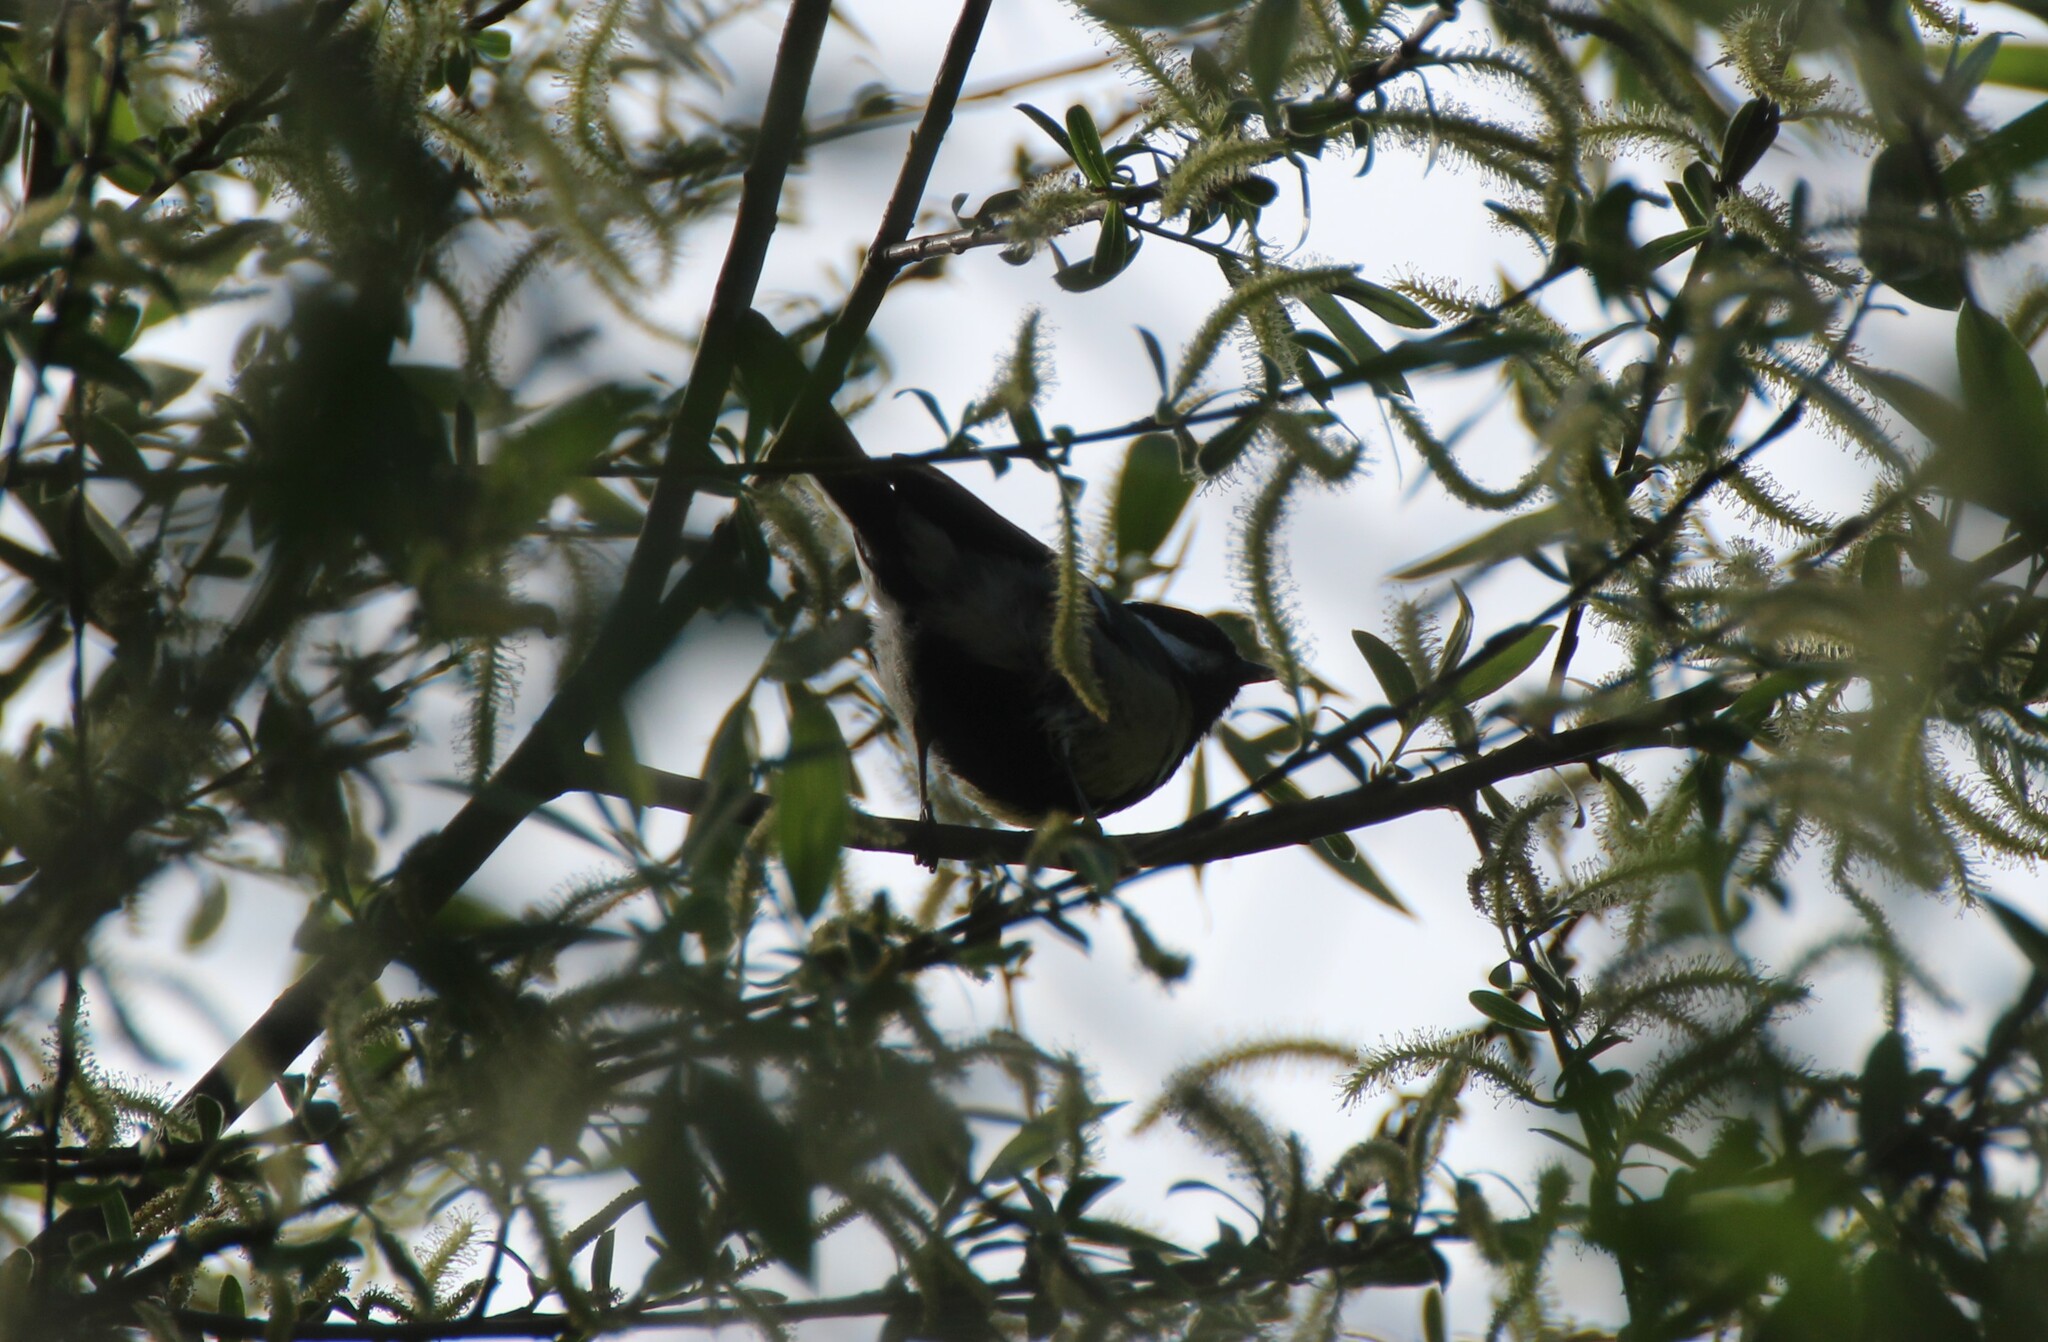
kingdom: Animalia
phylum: Chordata
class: Aves
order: Passeriformes
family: Paridae
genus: Parus
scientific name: Parus major
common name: Great tit
